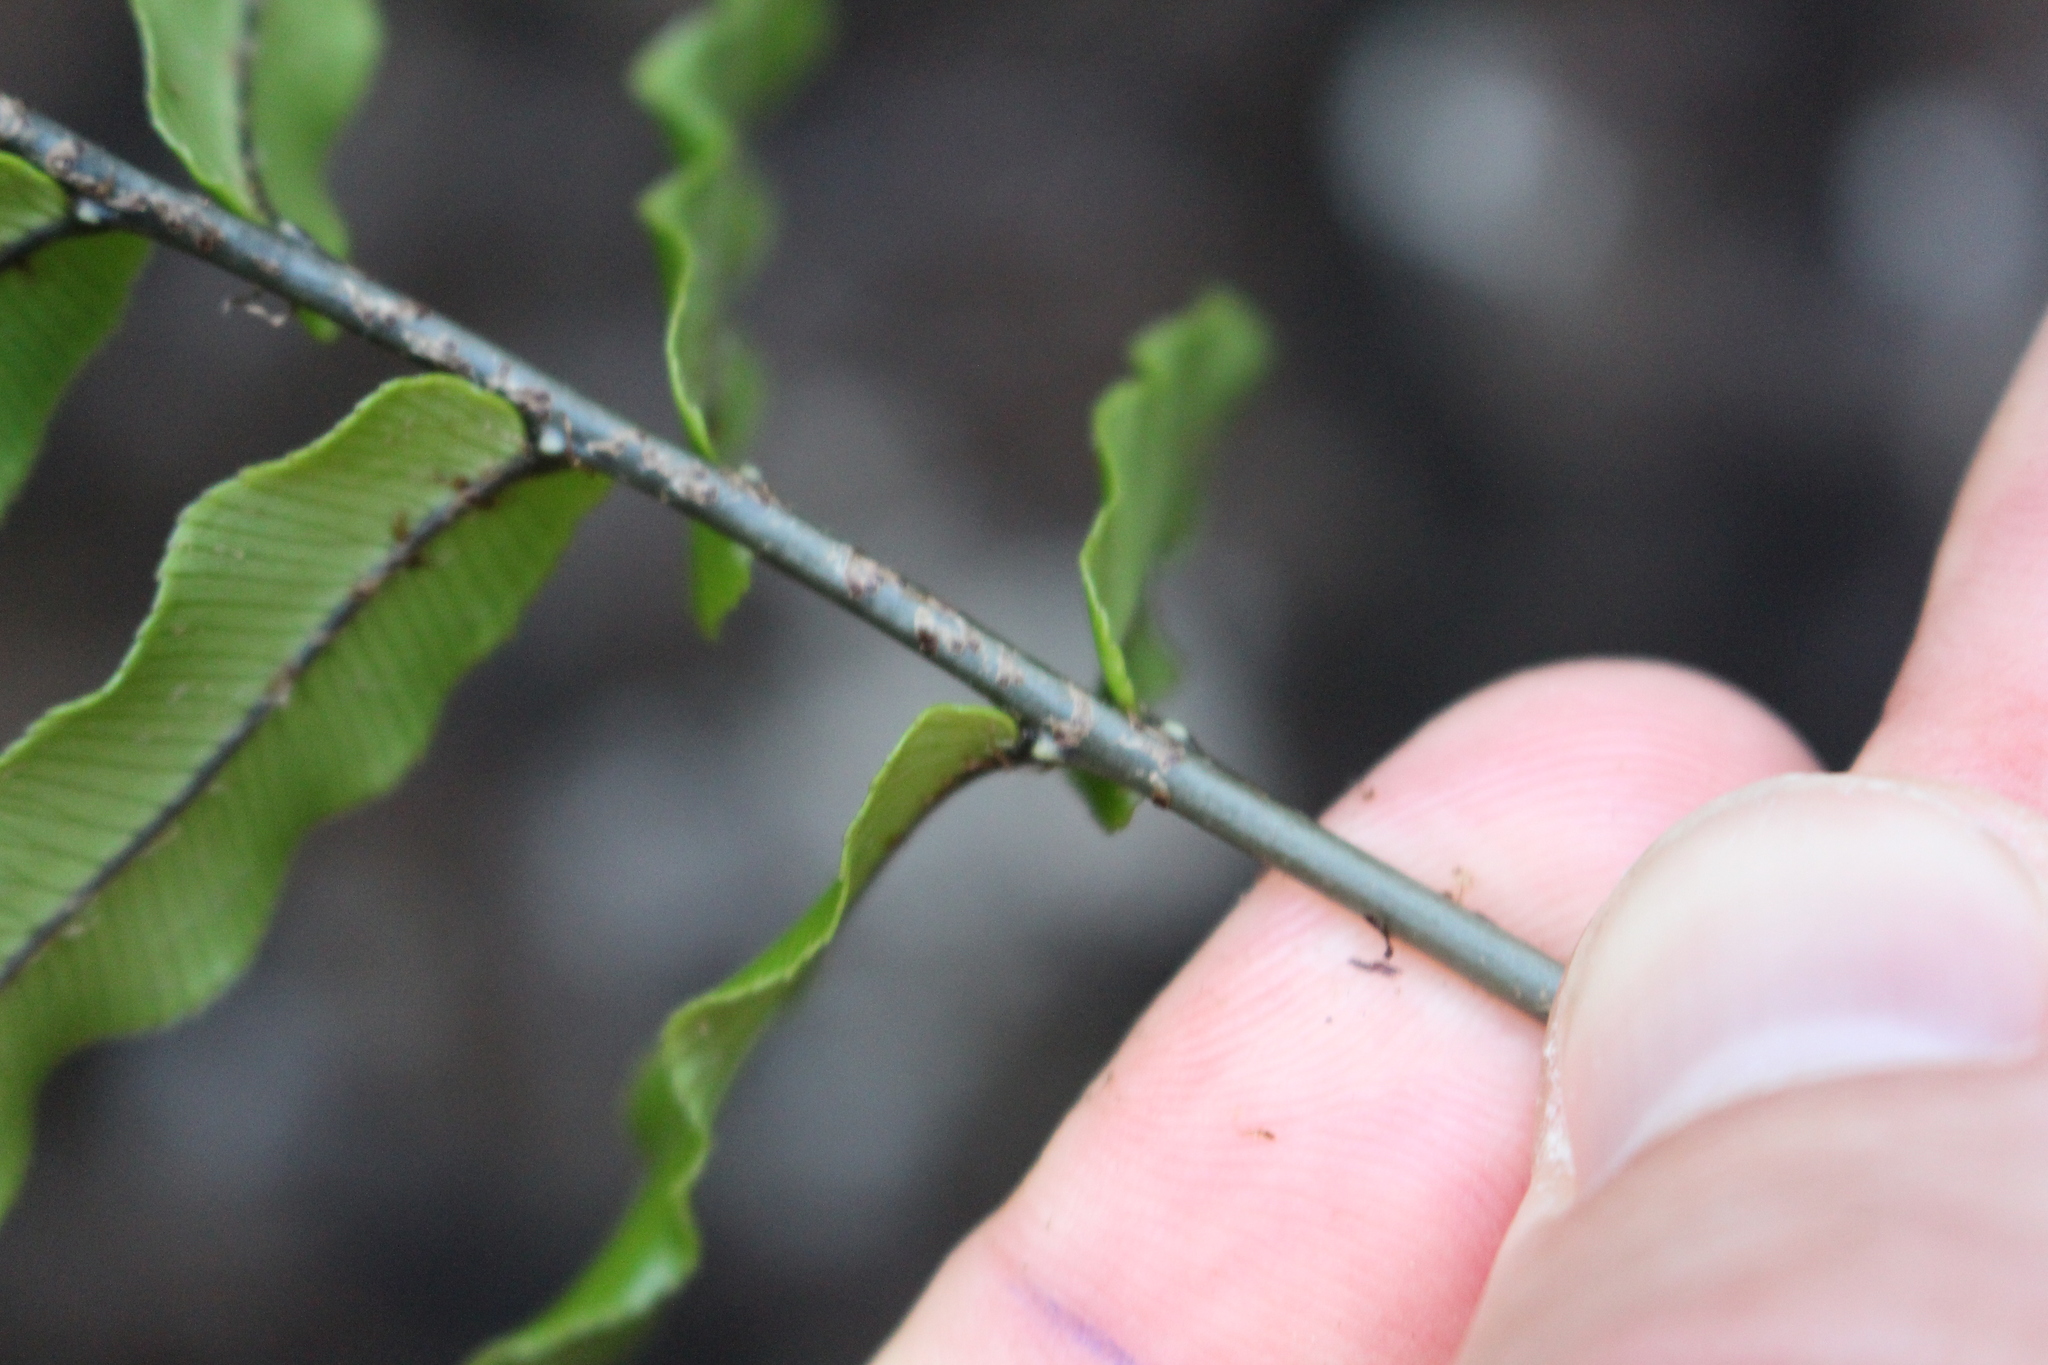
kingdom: Plantae
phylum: Tracheophyta
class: Polypodiopsida
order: Polypodiales
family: Blechnaceae
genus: Parablechnum
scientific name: Parablechnum montanum
